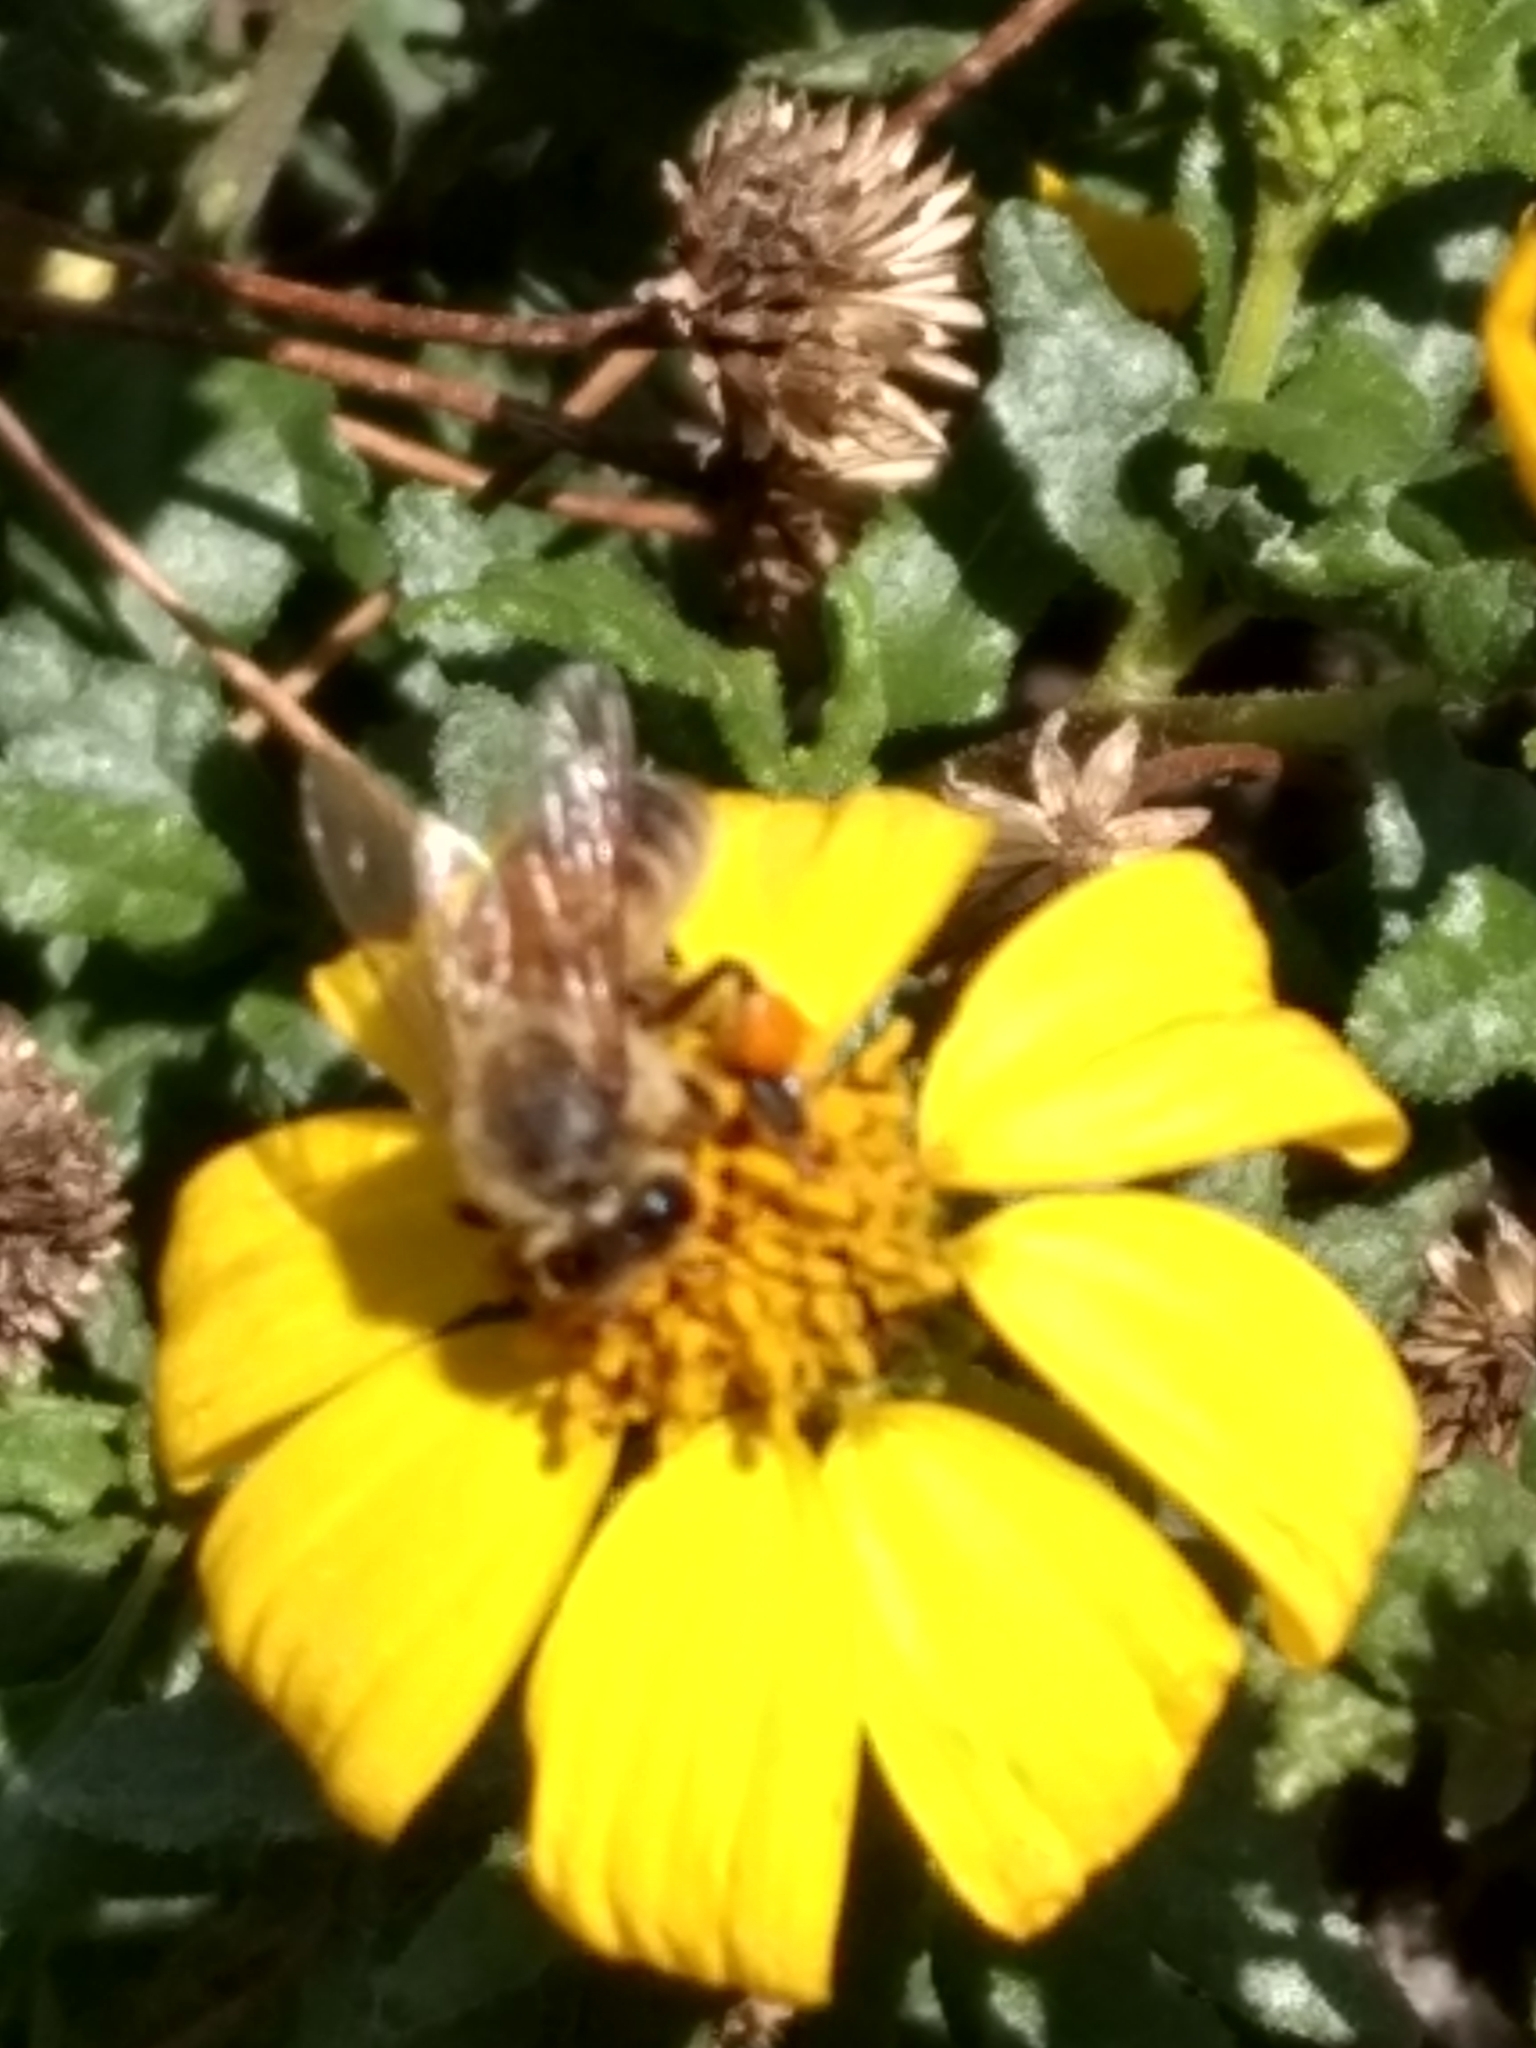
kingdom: Animalia
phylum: Arthropoda
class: Insecta
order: Hymenoptera
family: Apidae
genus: Apis
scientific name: Apis mellifera
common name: Honey bee
